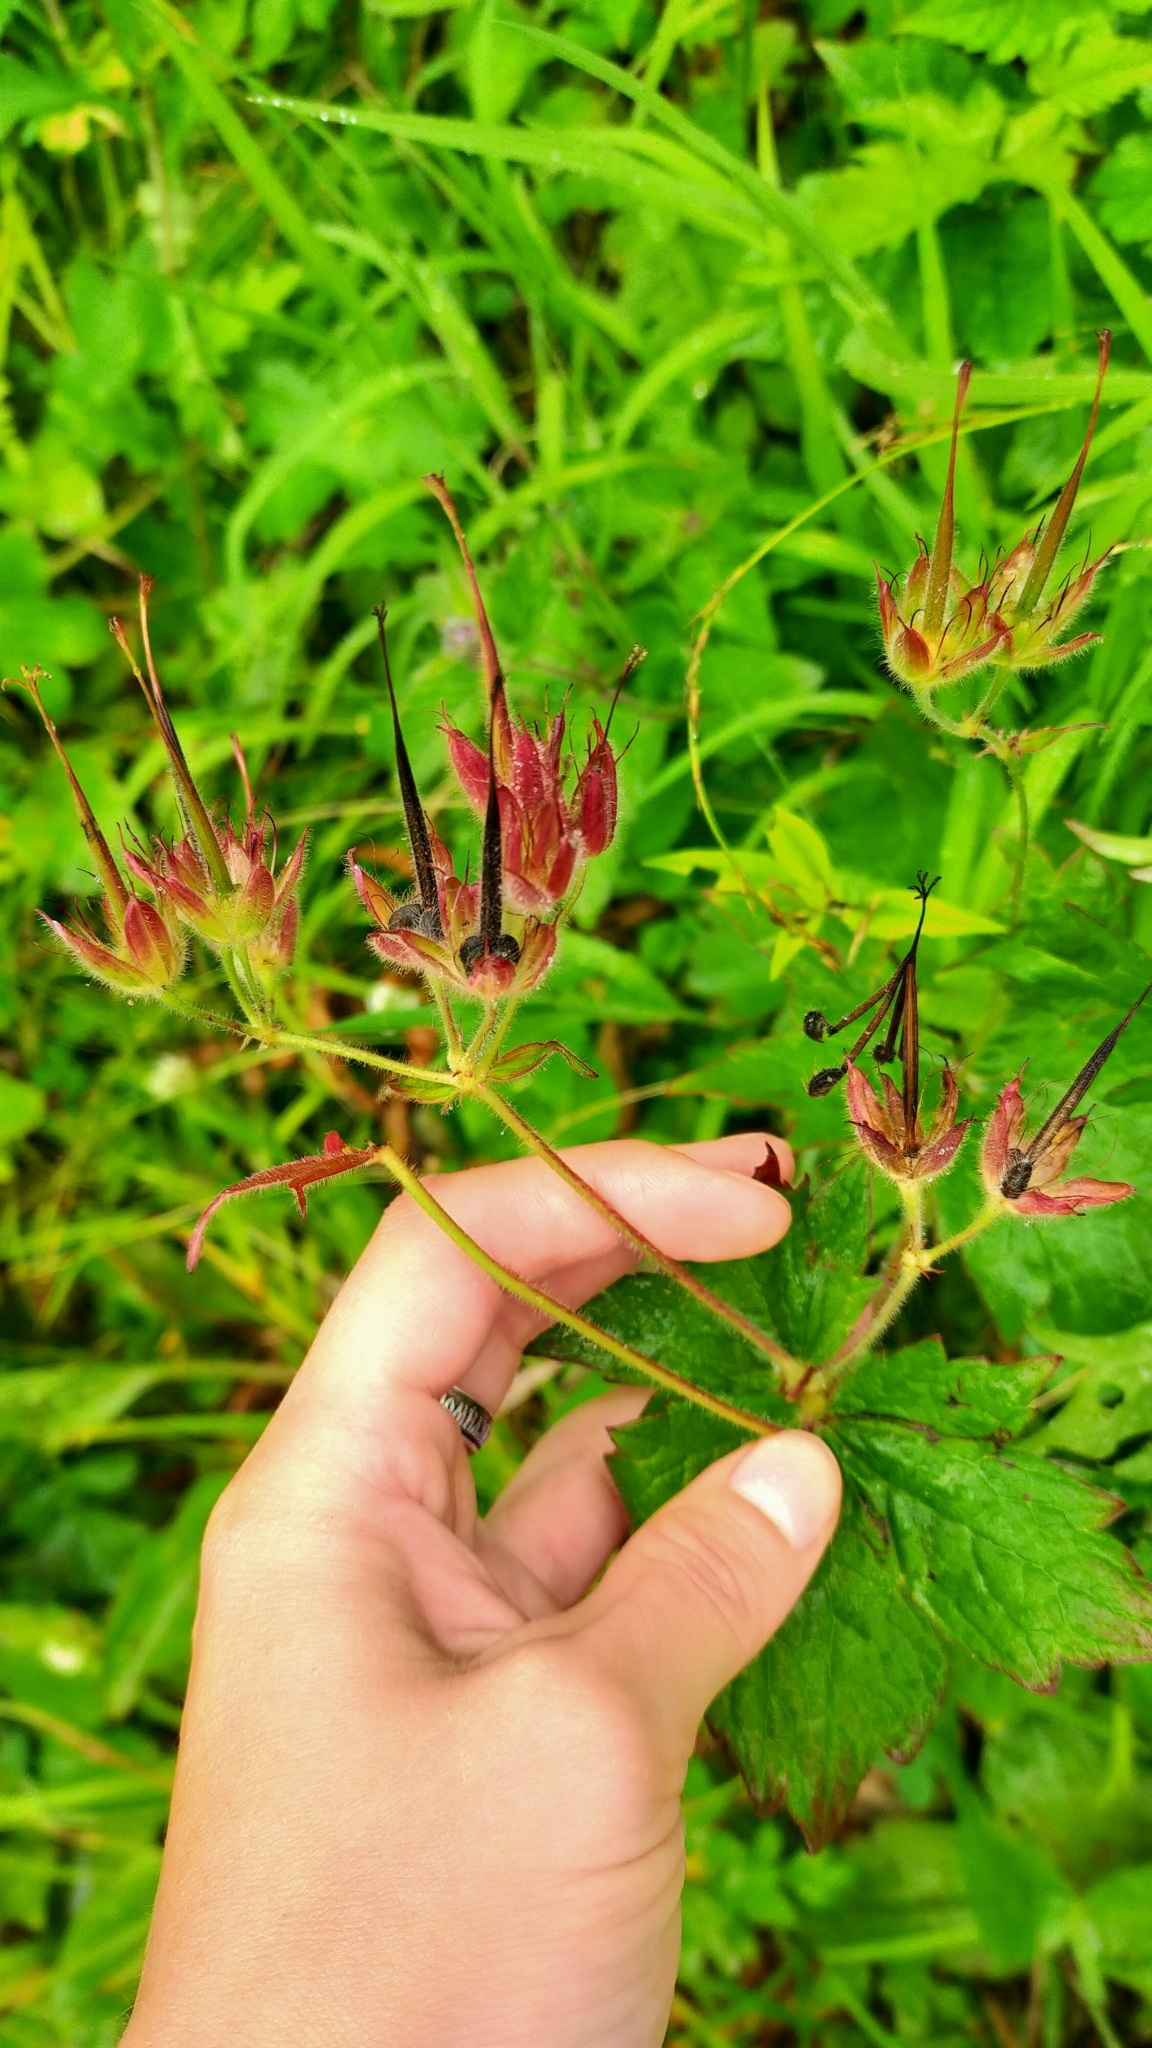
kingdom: Plantae
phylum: Tracheophyta
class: Magnoliopsida
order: Geraniales
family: Geraniaceae
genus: Geranium
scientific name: Geranium platyanthum
